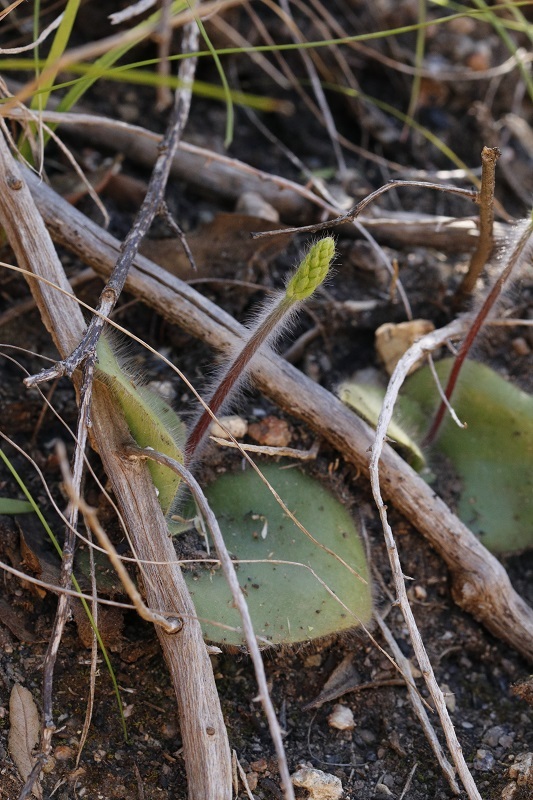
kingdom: Plantae
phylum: Tracheophyta
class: Liliopsida
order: Asparagales
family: Orchidaceae
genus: Holothrix
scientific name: Holothrix villosa
